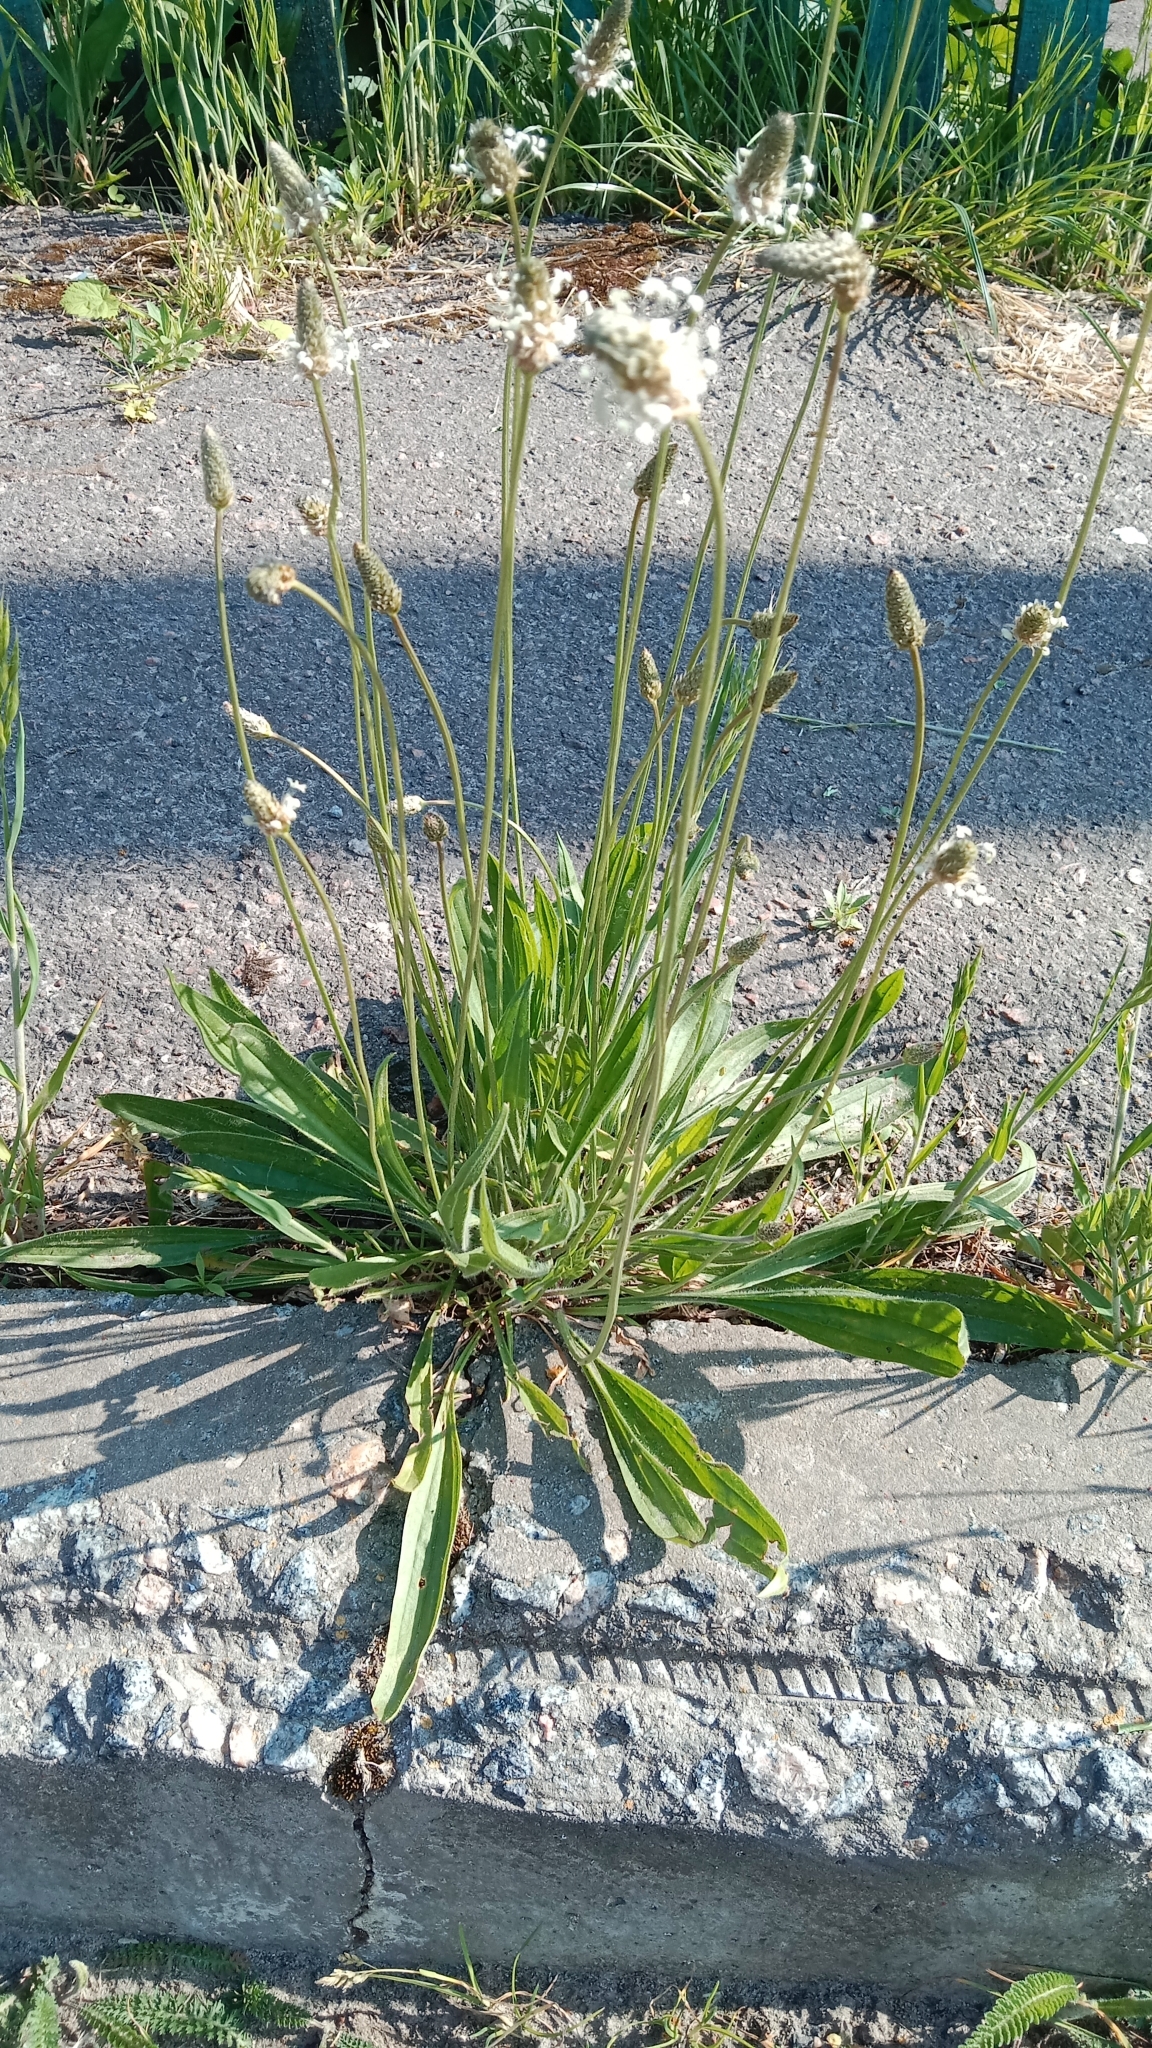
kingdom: Plantae
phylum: Tracheophyta
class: Magnoliopsida
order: Lamiales
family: Plantaginaceae
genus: Plantago
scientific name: Plantago lanceolata
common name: Ribwort plantain
